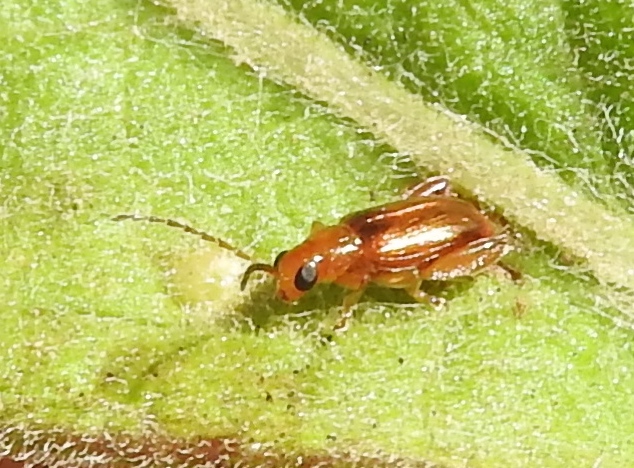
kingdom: Animalia
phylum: Arthropoda
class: Insecta
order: Coleoptera
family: Chrysomelidae
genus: Alticini
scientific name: Alticini
